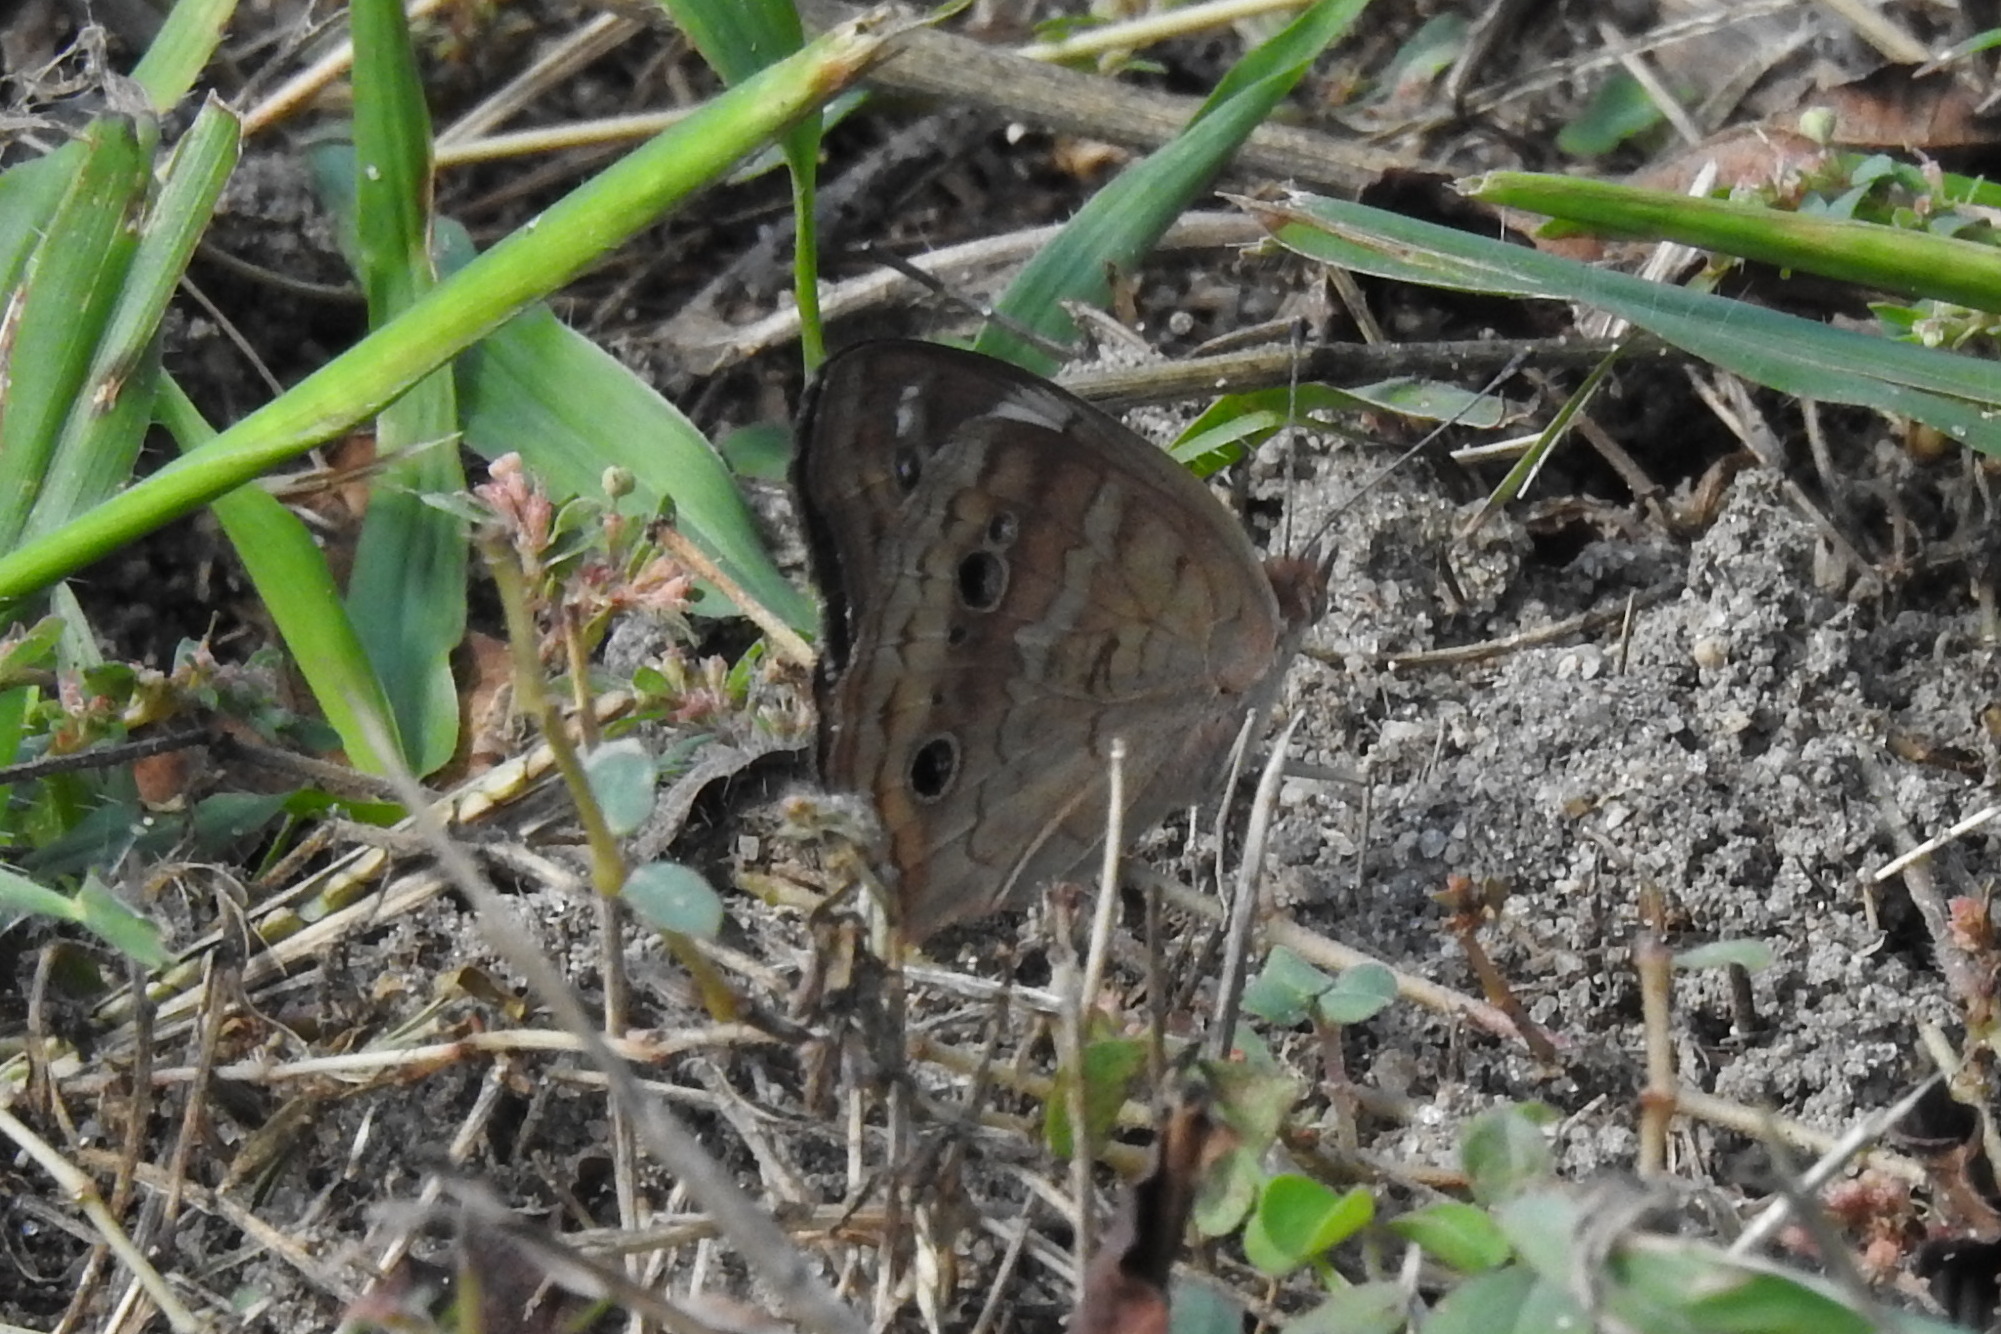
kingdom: Animalia
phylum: Arthropoda
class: Insecta
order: Lepidoptera
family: Nymphalidae
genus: Junonia
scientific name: Junonia coenia
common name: Common buckeye
